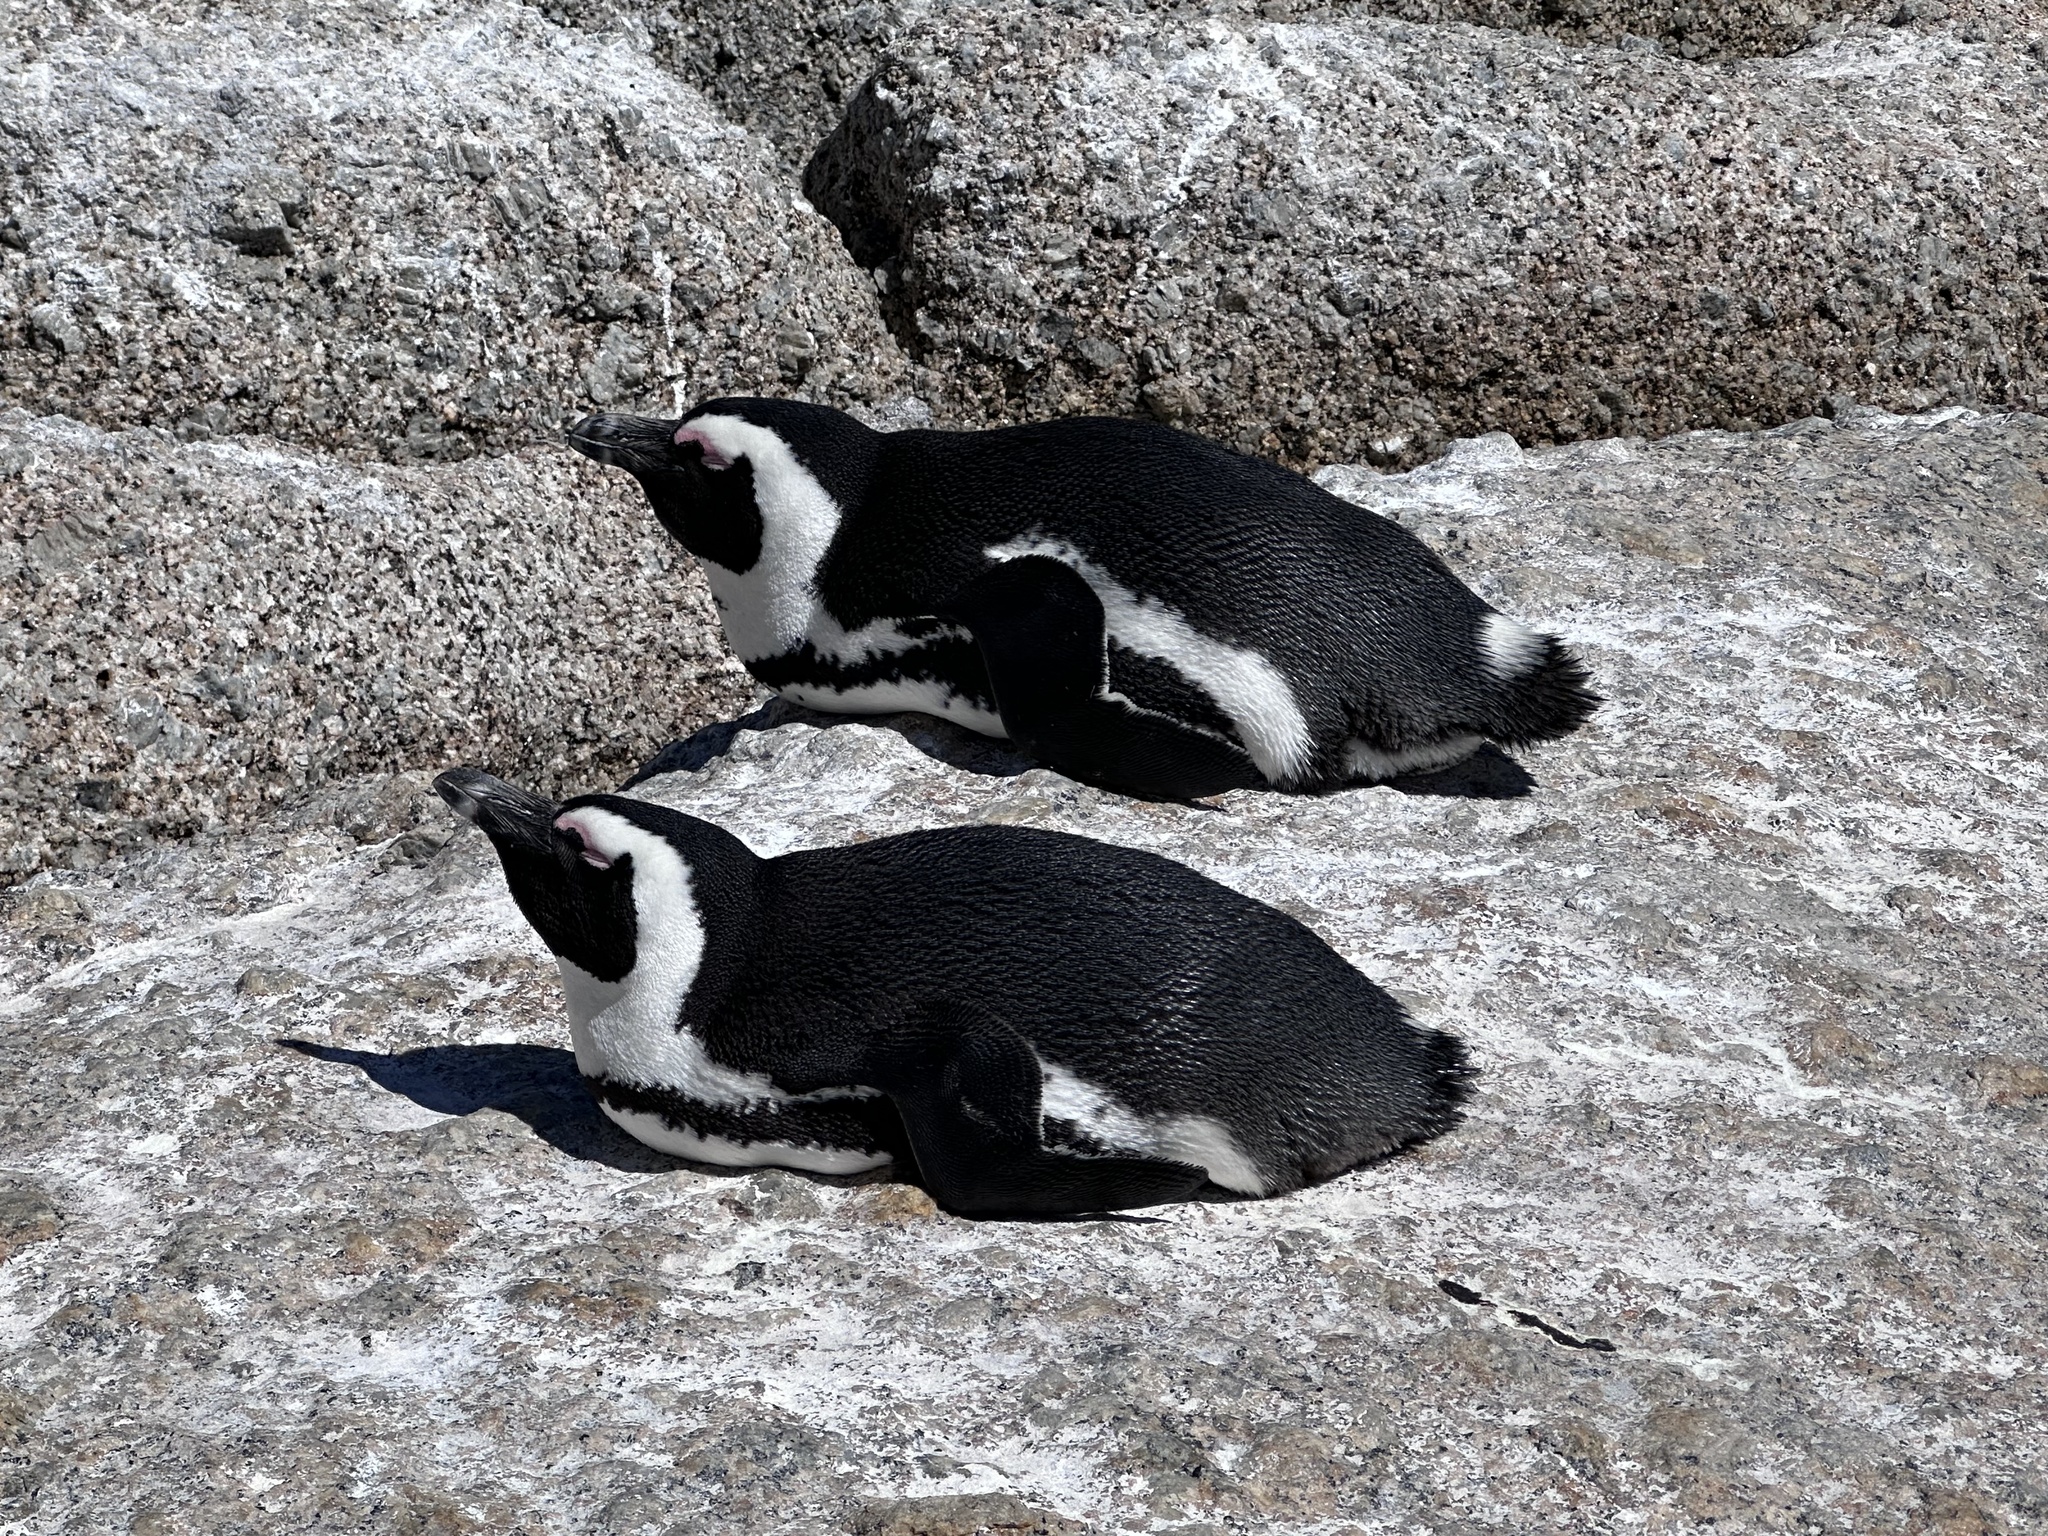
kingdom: Animalia
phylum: Chordata
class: Aves
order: Sphenisciformes
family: Spheniscidae
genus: Spheniscus
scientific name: Spheniscus demersus
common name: African penguin
